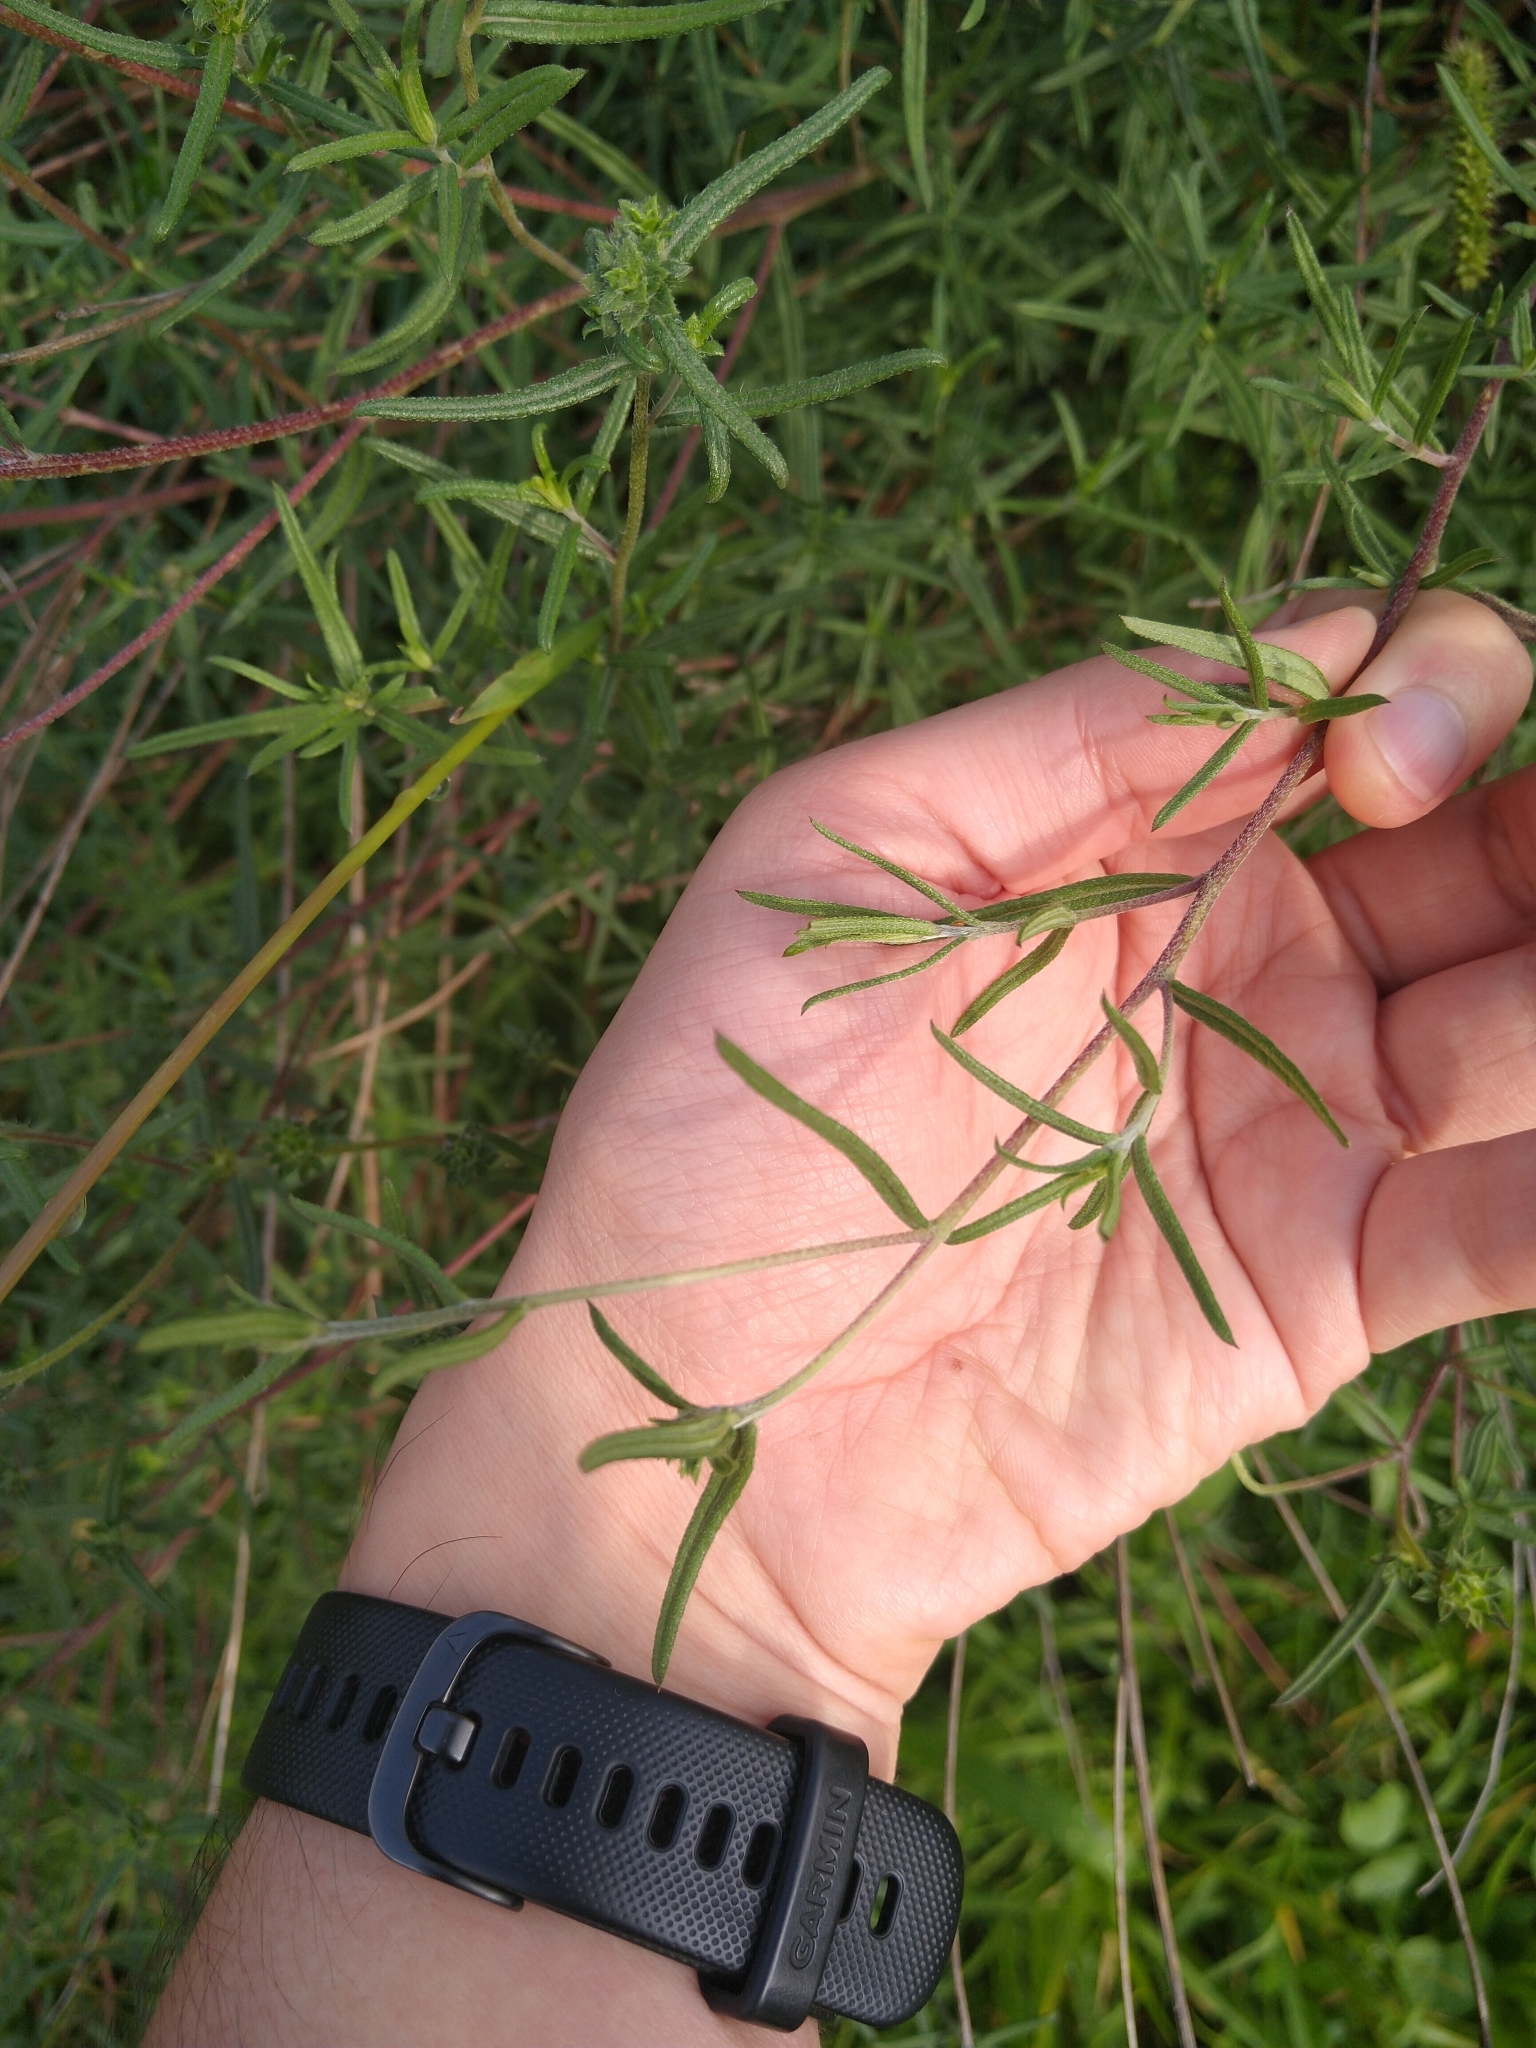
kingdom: Plantae
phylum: Tracheophyta
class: Magnoliopsida
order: Asterales
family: Asteraceae
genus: Aldama
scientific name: Aldama linearis
